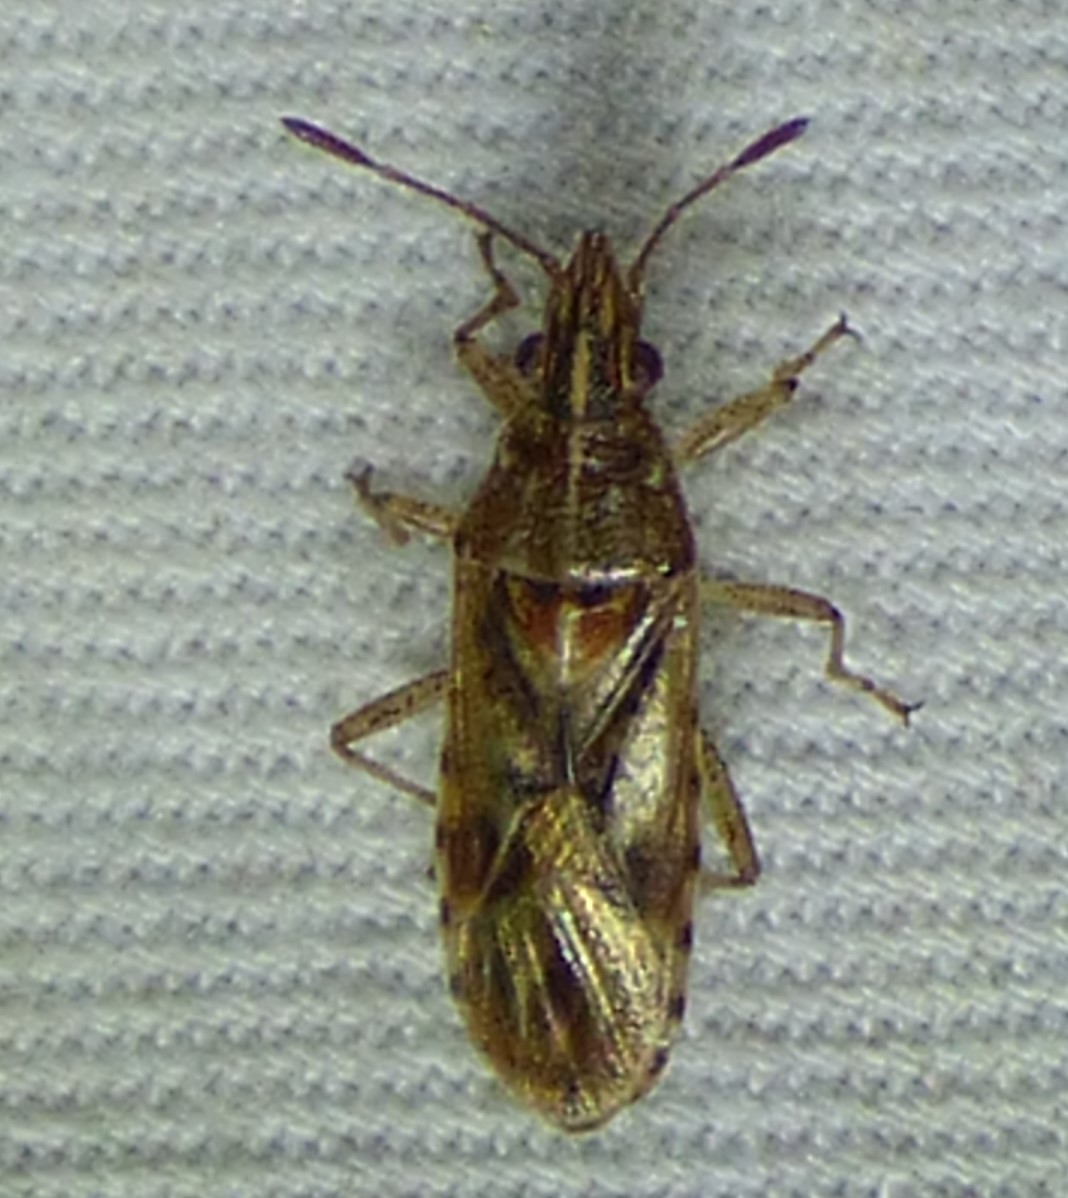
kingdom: Animalia
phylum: Arthropoda
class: Insecta
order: Hemiptera
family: Lygaeidae
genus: Belonochilus
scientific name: Belonochilus numenius
